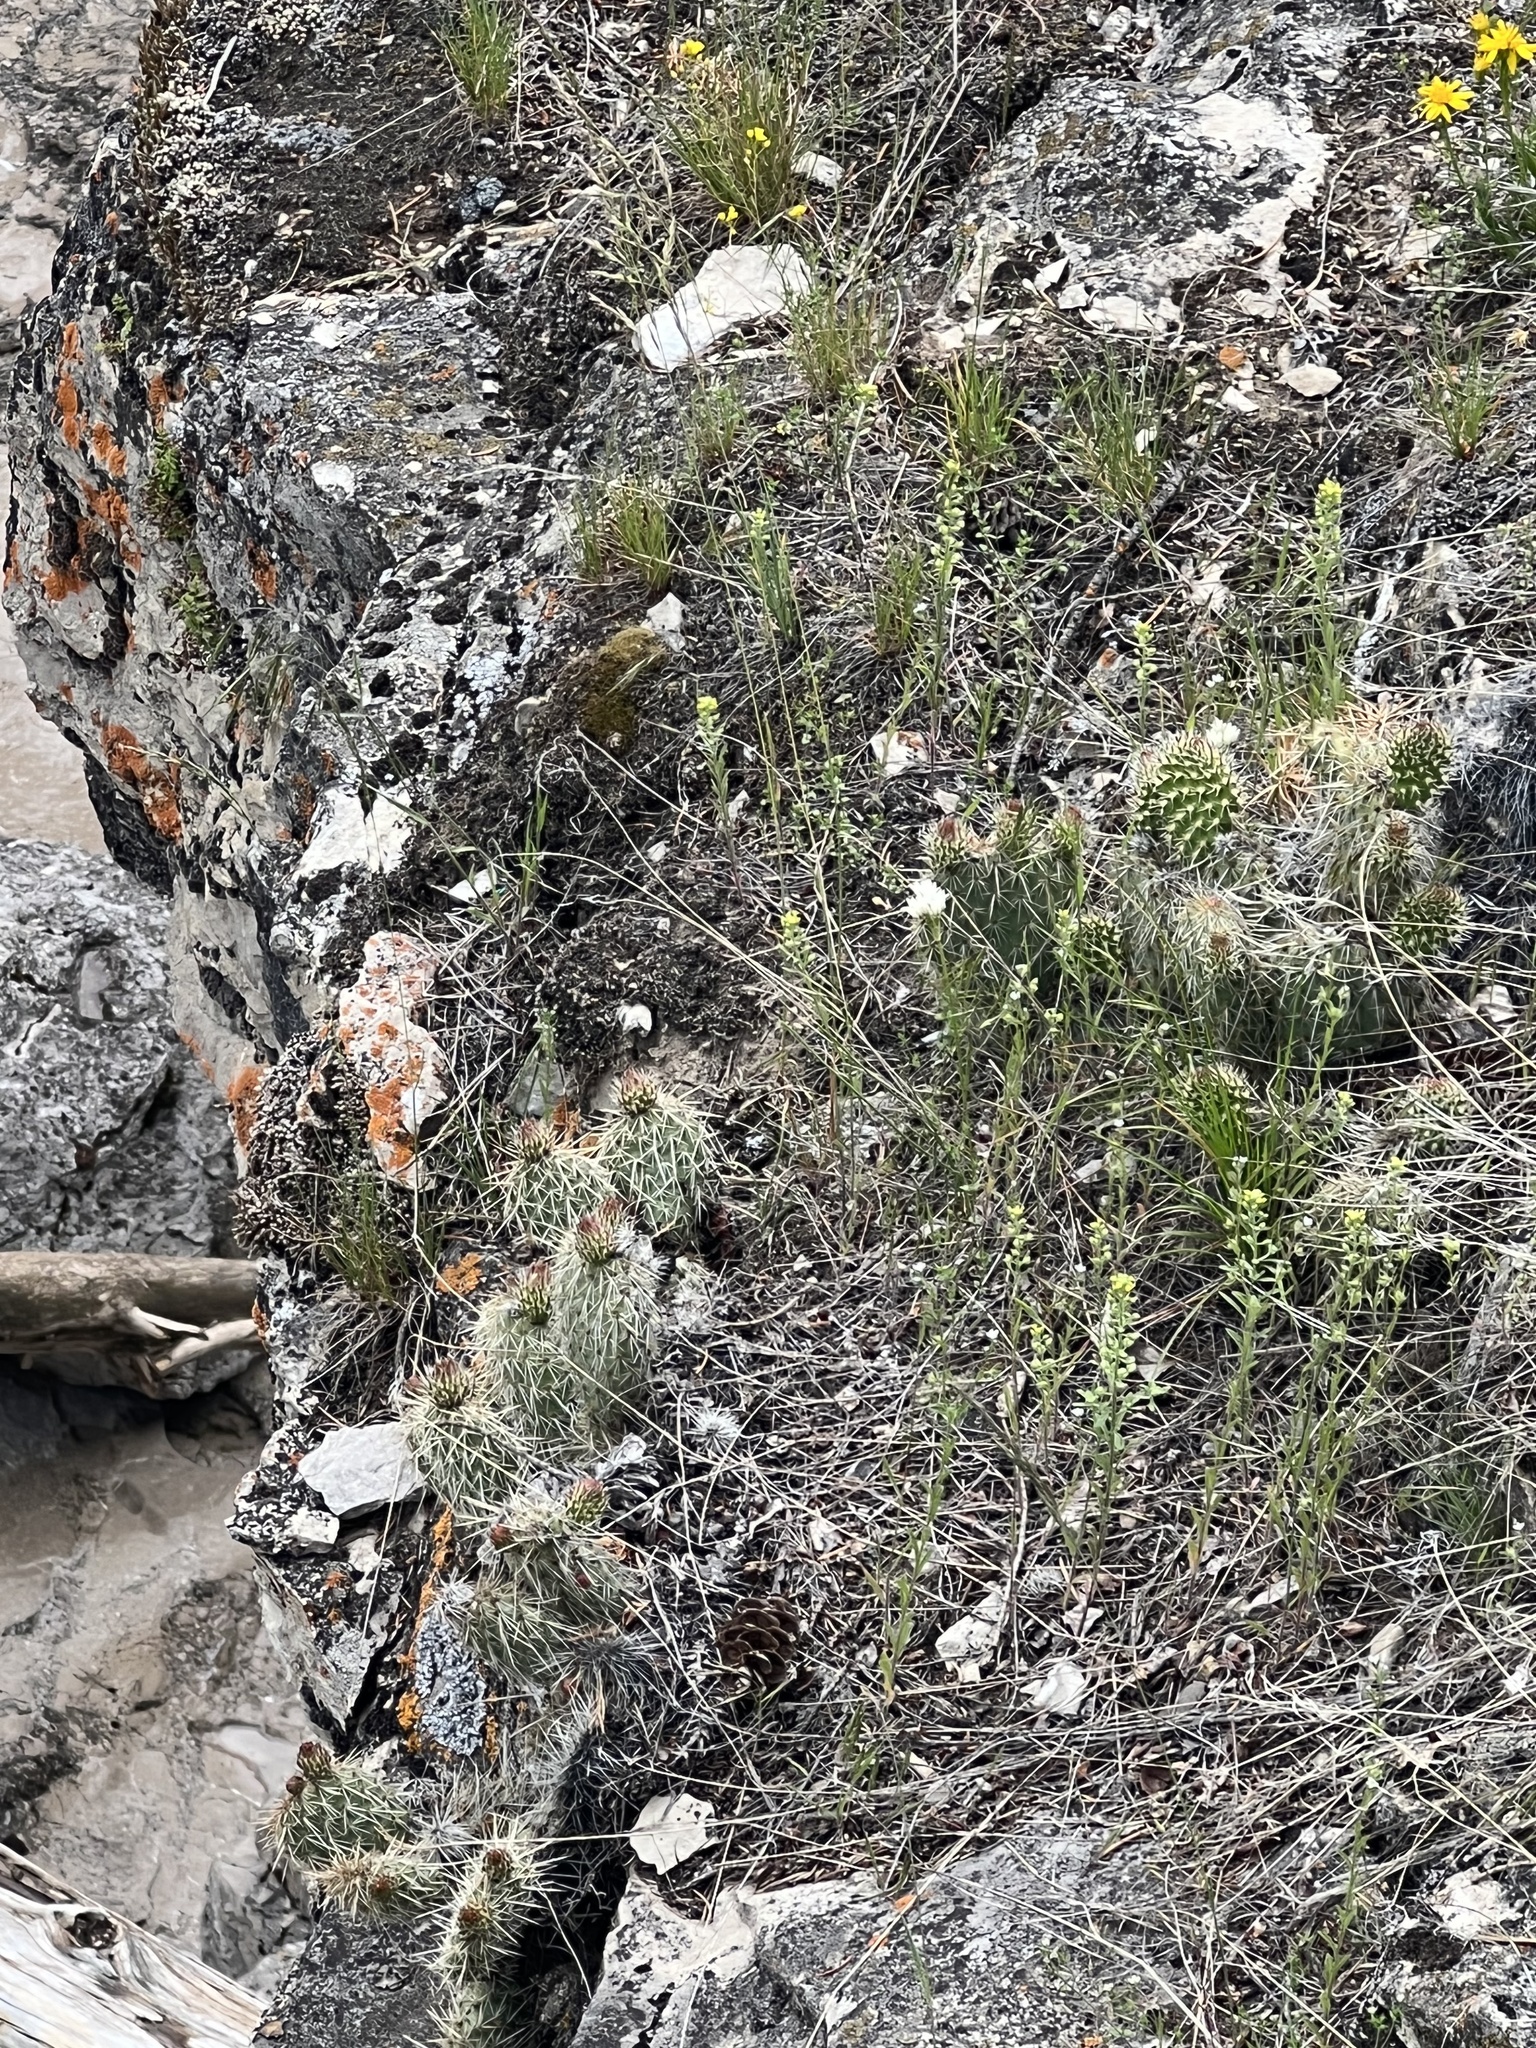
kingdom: Plantae
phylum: Tracheophyta
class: Magnoliopsida
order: Caryophyllales
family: Cactaceae
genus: Opuntia
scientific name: Opuntia polyacantha
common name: Plains prickly-pear
